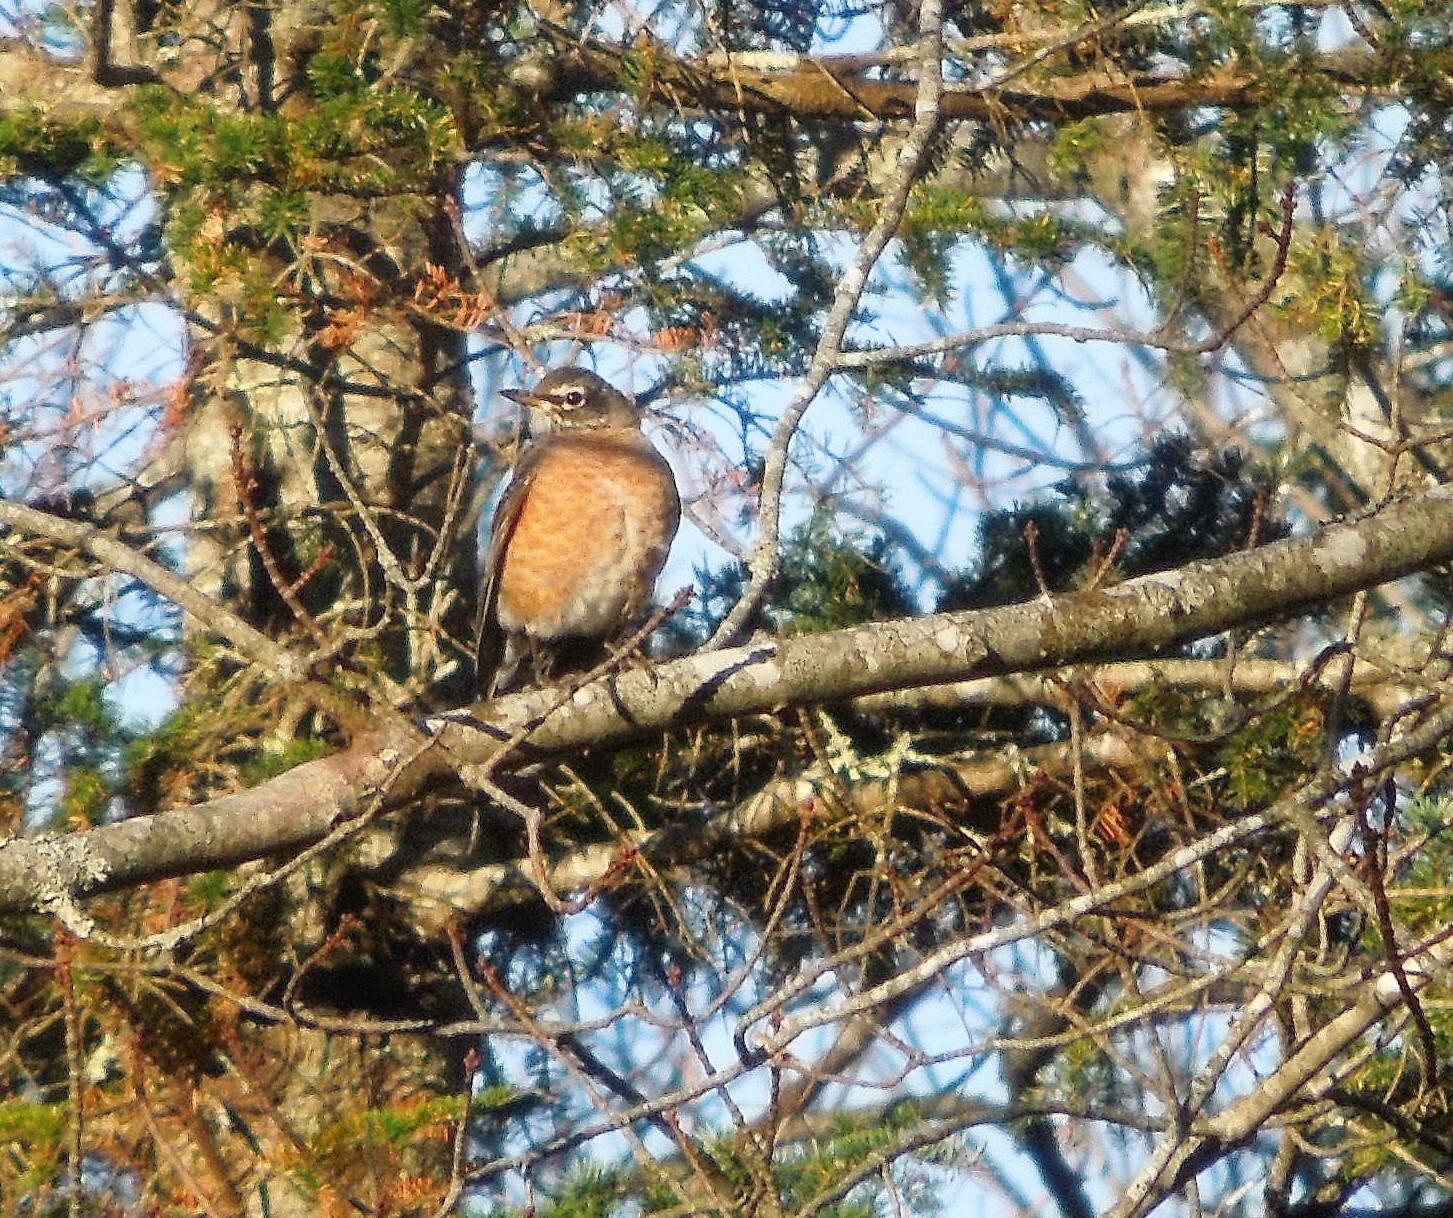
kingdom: Animalia
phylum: Chordata
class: Aves
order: Passeriformes
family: Turdidae
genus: Turdus
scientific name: Turdus migratorius
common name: American robin
